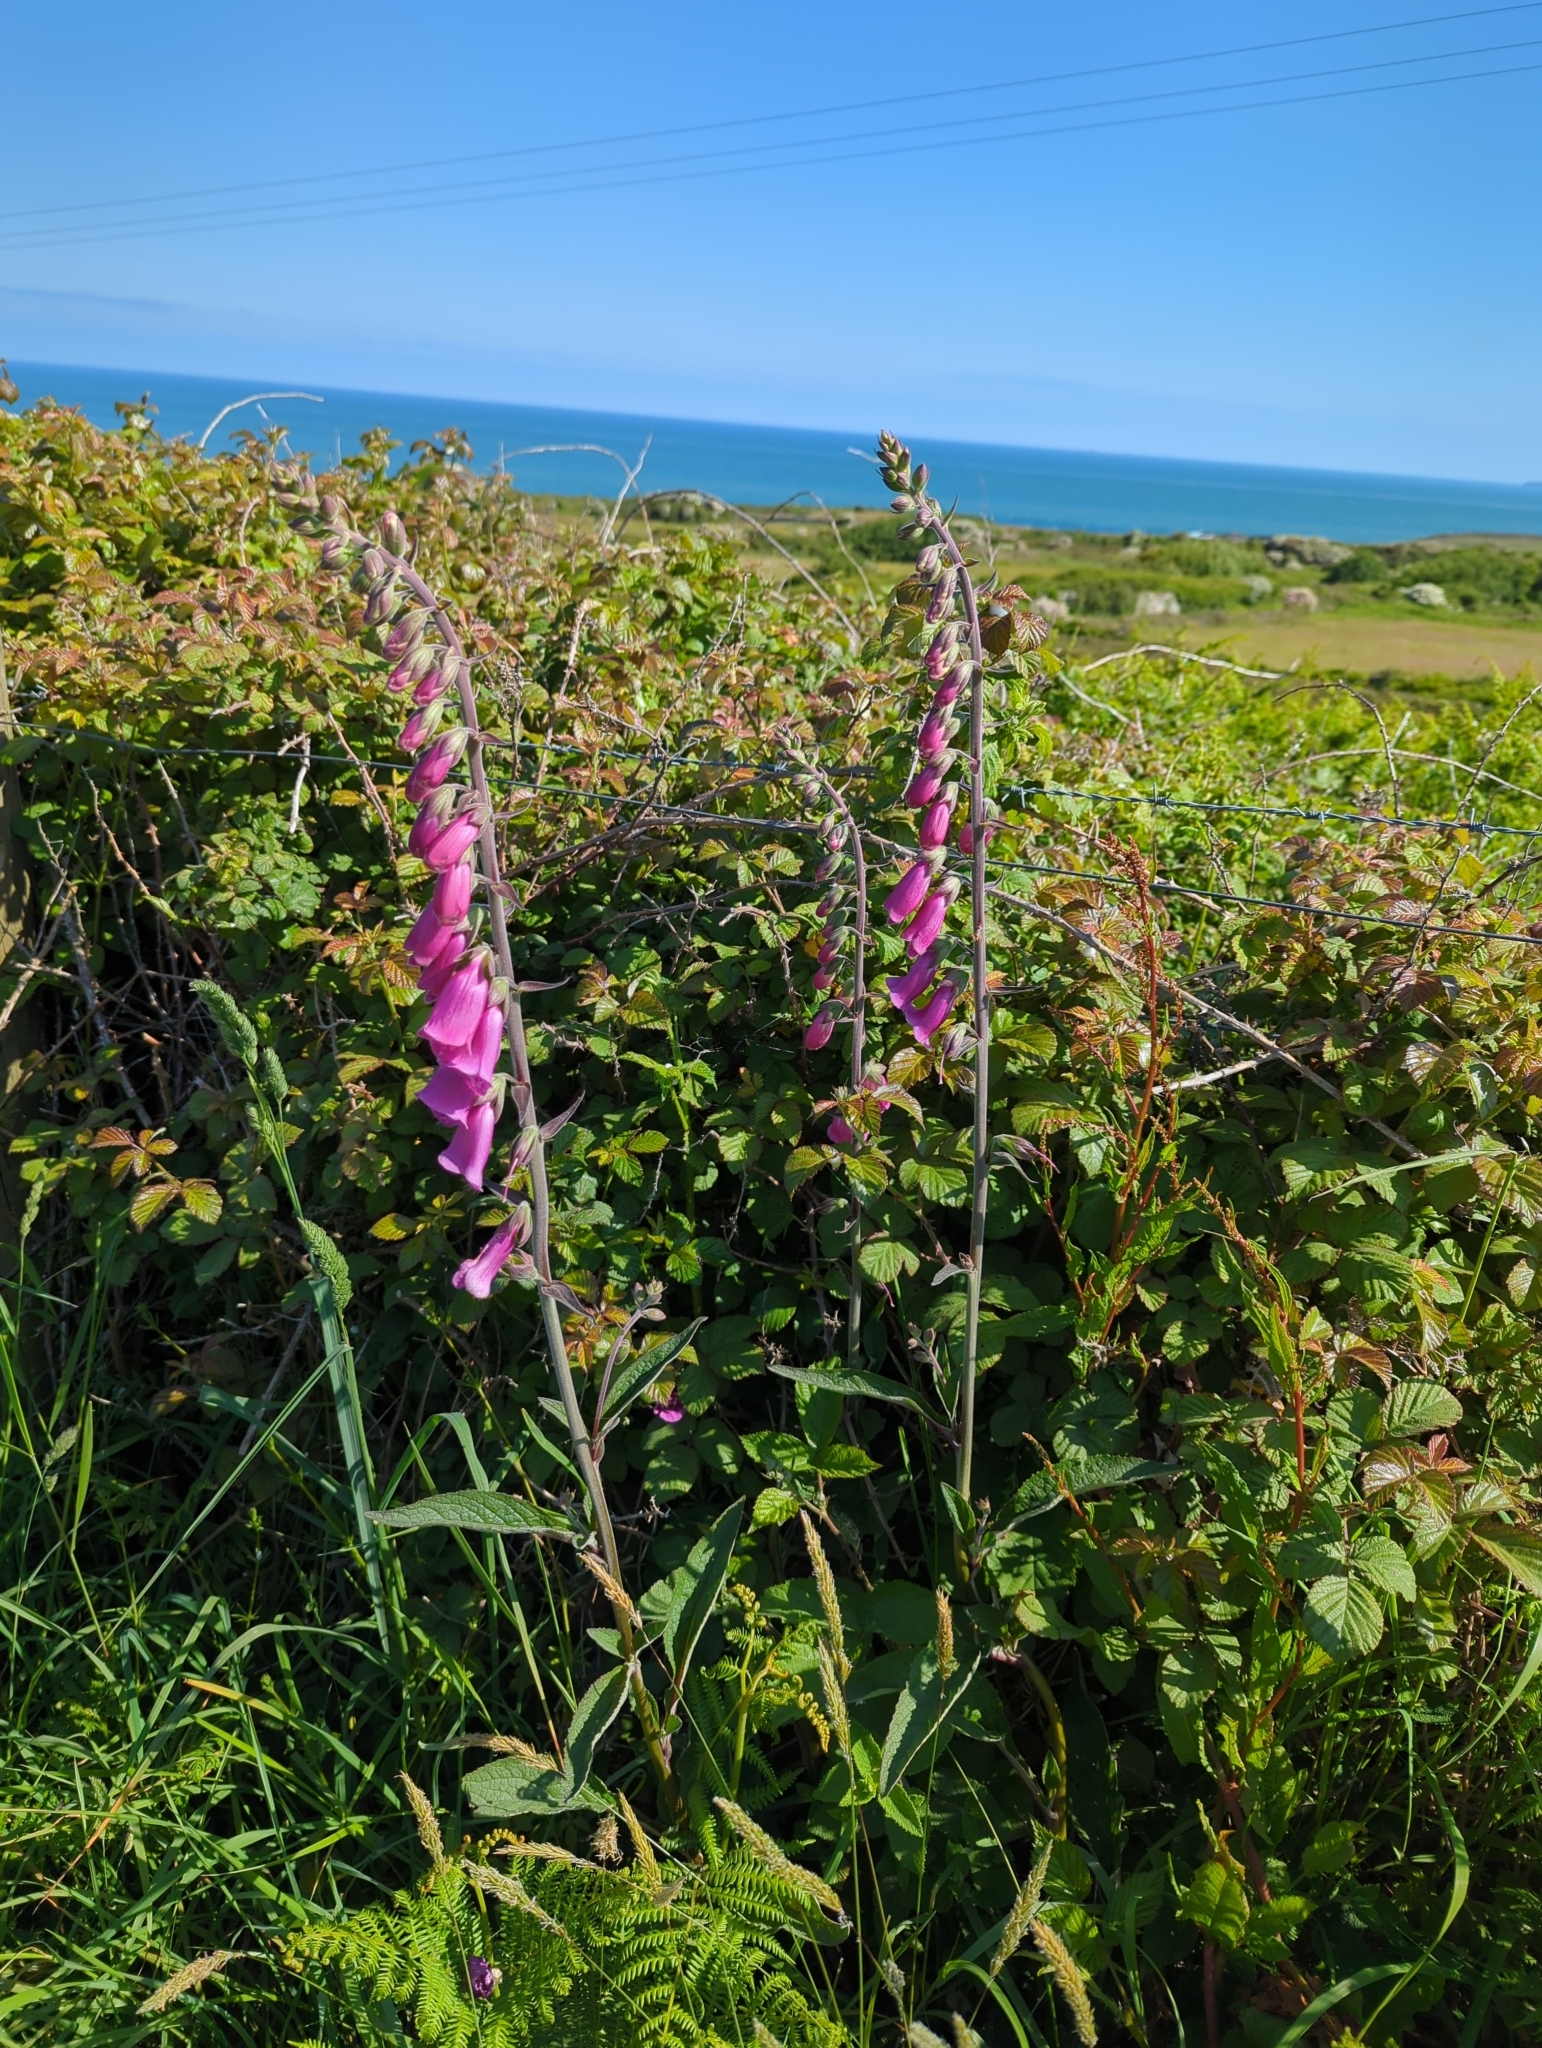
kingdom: Plantae
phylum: Tracheophyta
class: Magnoliopsida
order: Lamiales
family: Plantaginaceae
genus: Digitalis
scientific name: Digitalis purpurea
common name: Foxglove
